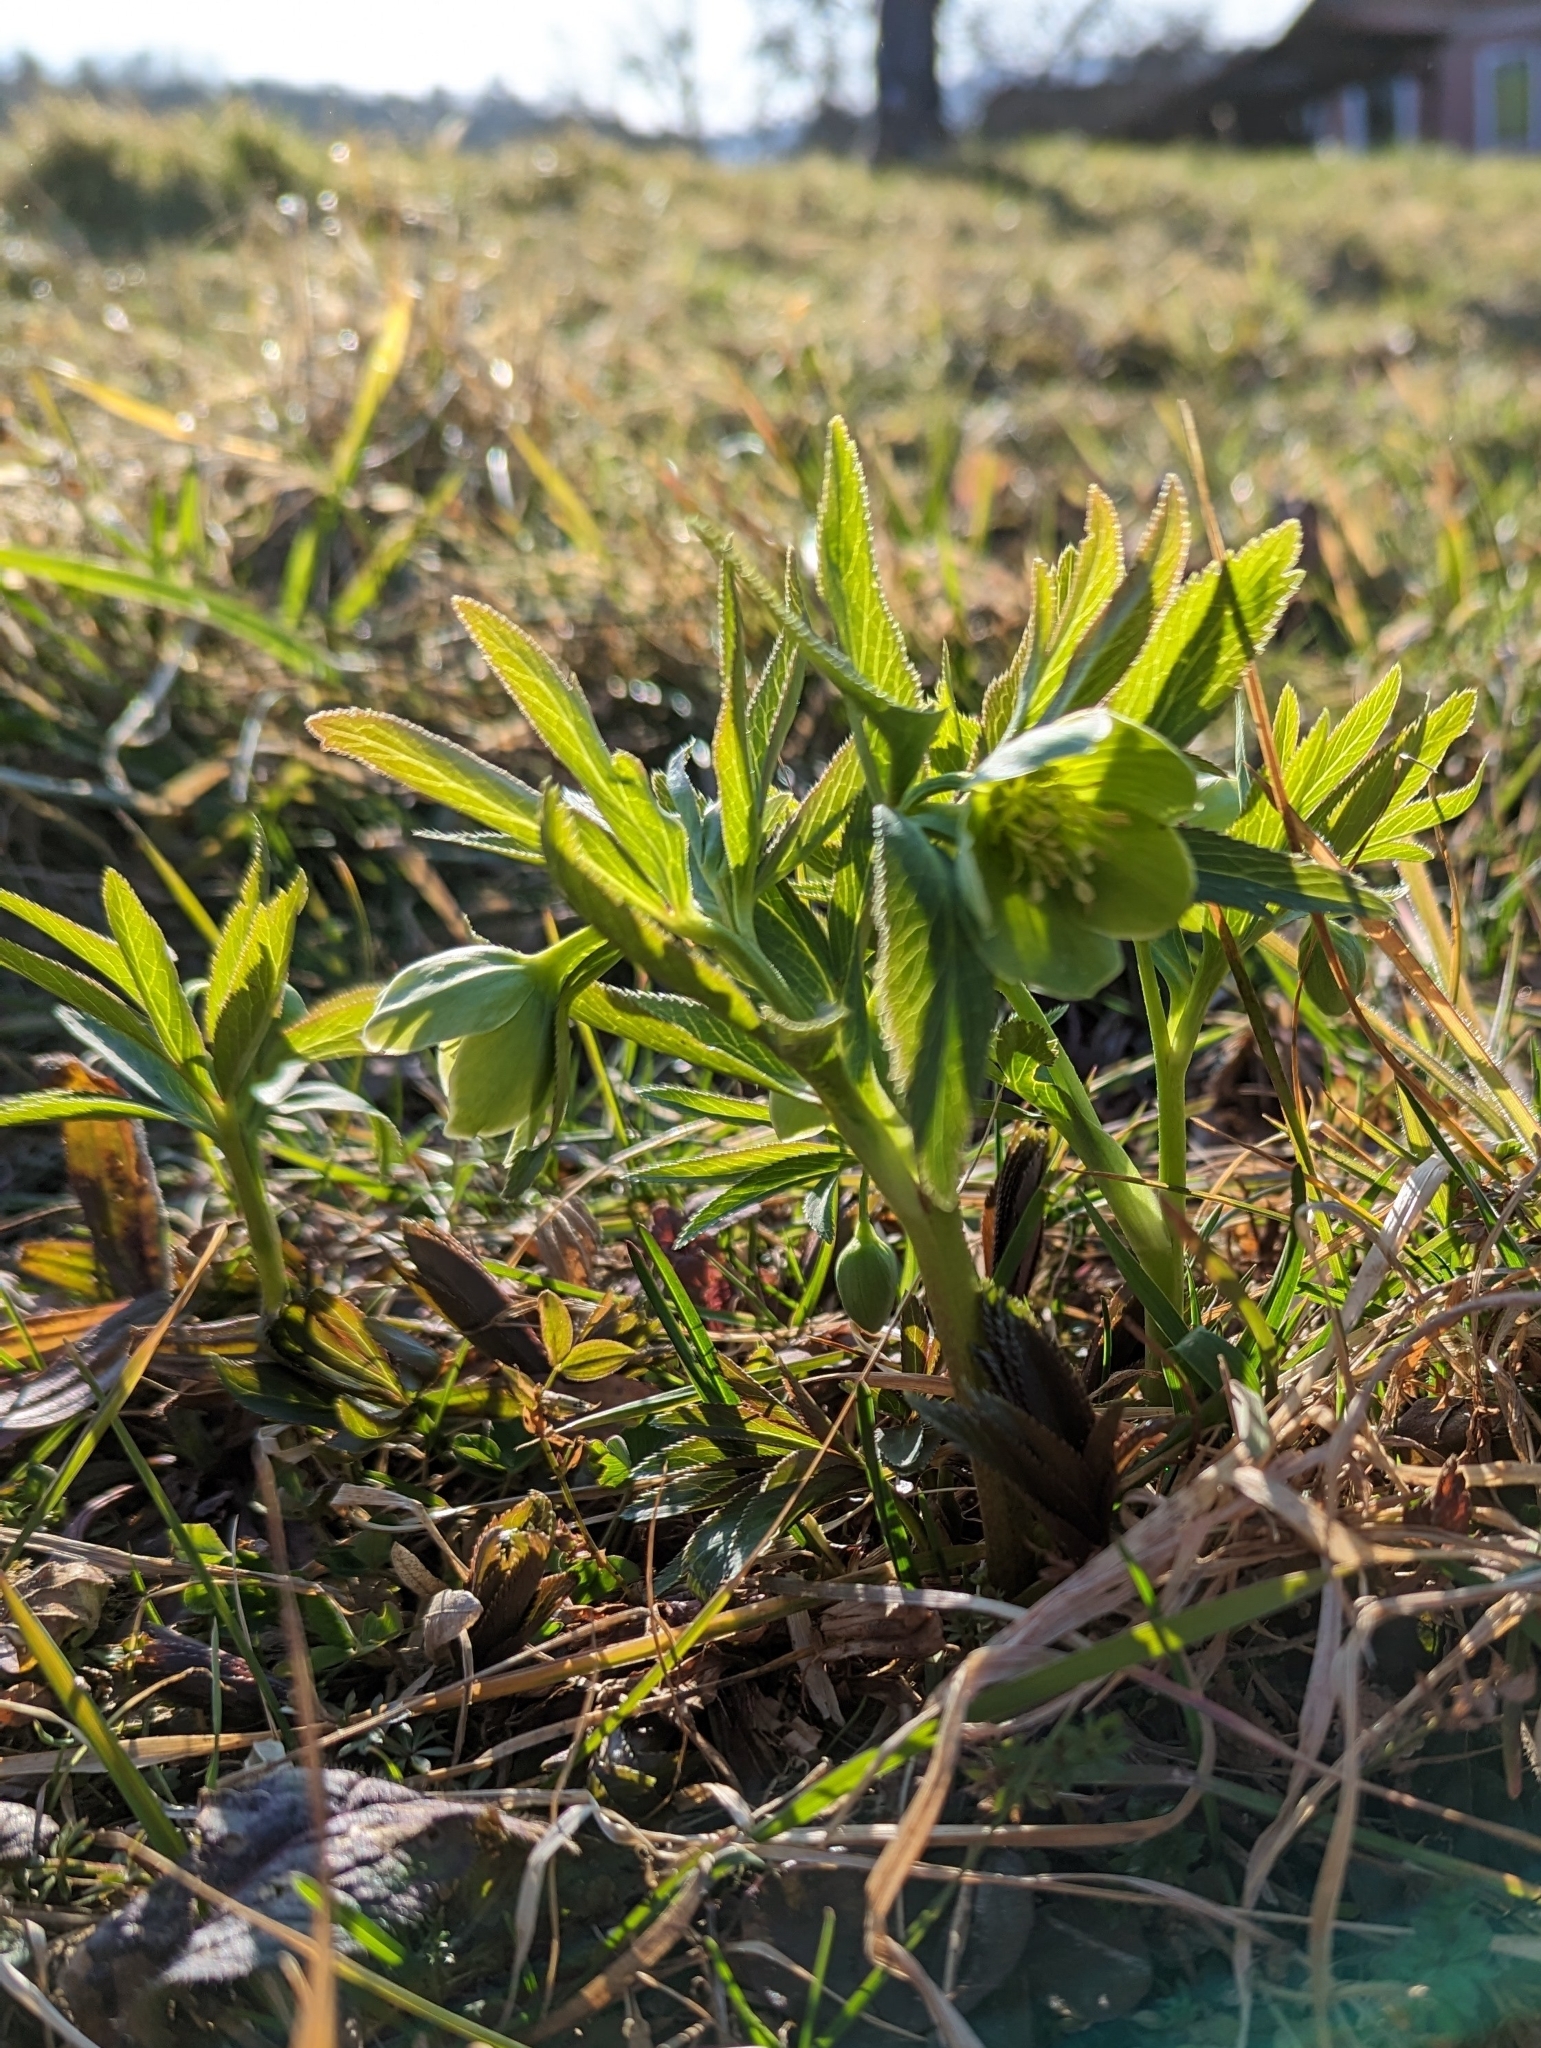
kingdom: Plantae
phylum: Tracheophyta
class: Magnoliopsida
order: Ranunculales
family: Ranunculaceae
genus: Helleborus
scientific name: Helleborus dumetorum
